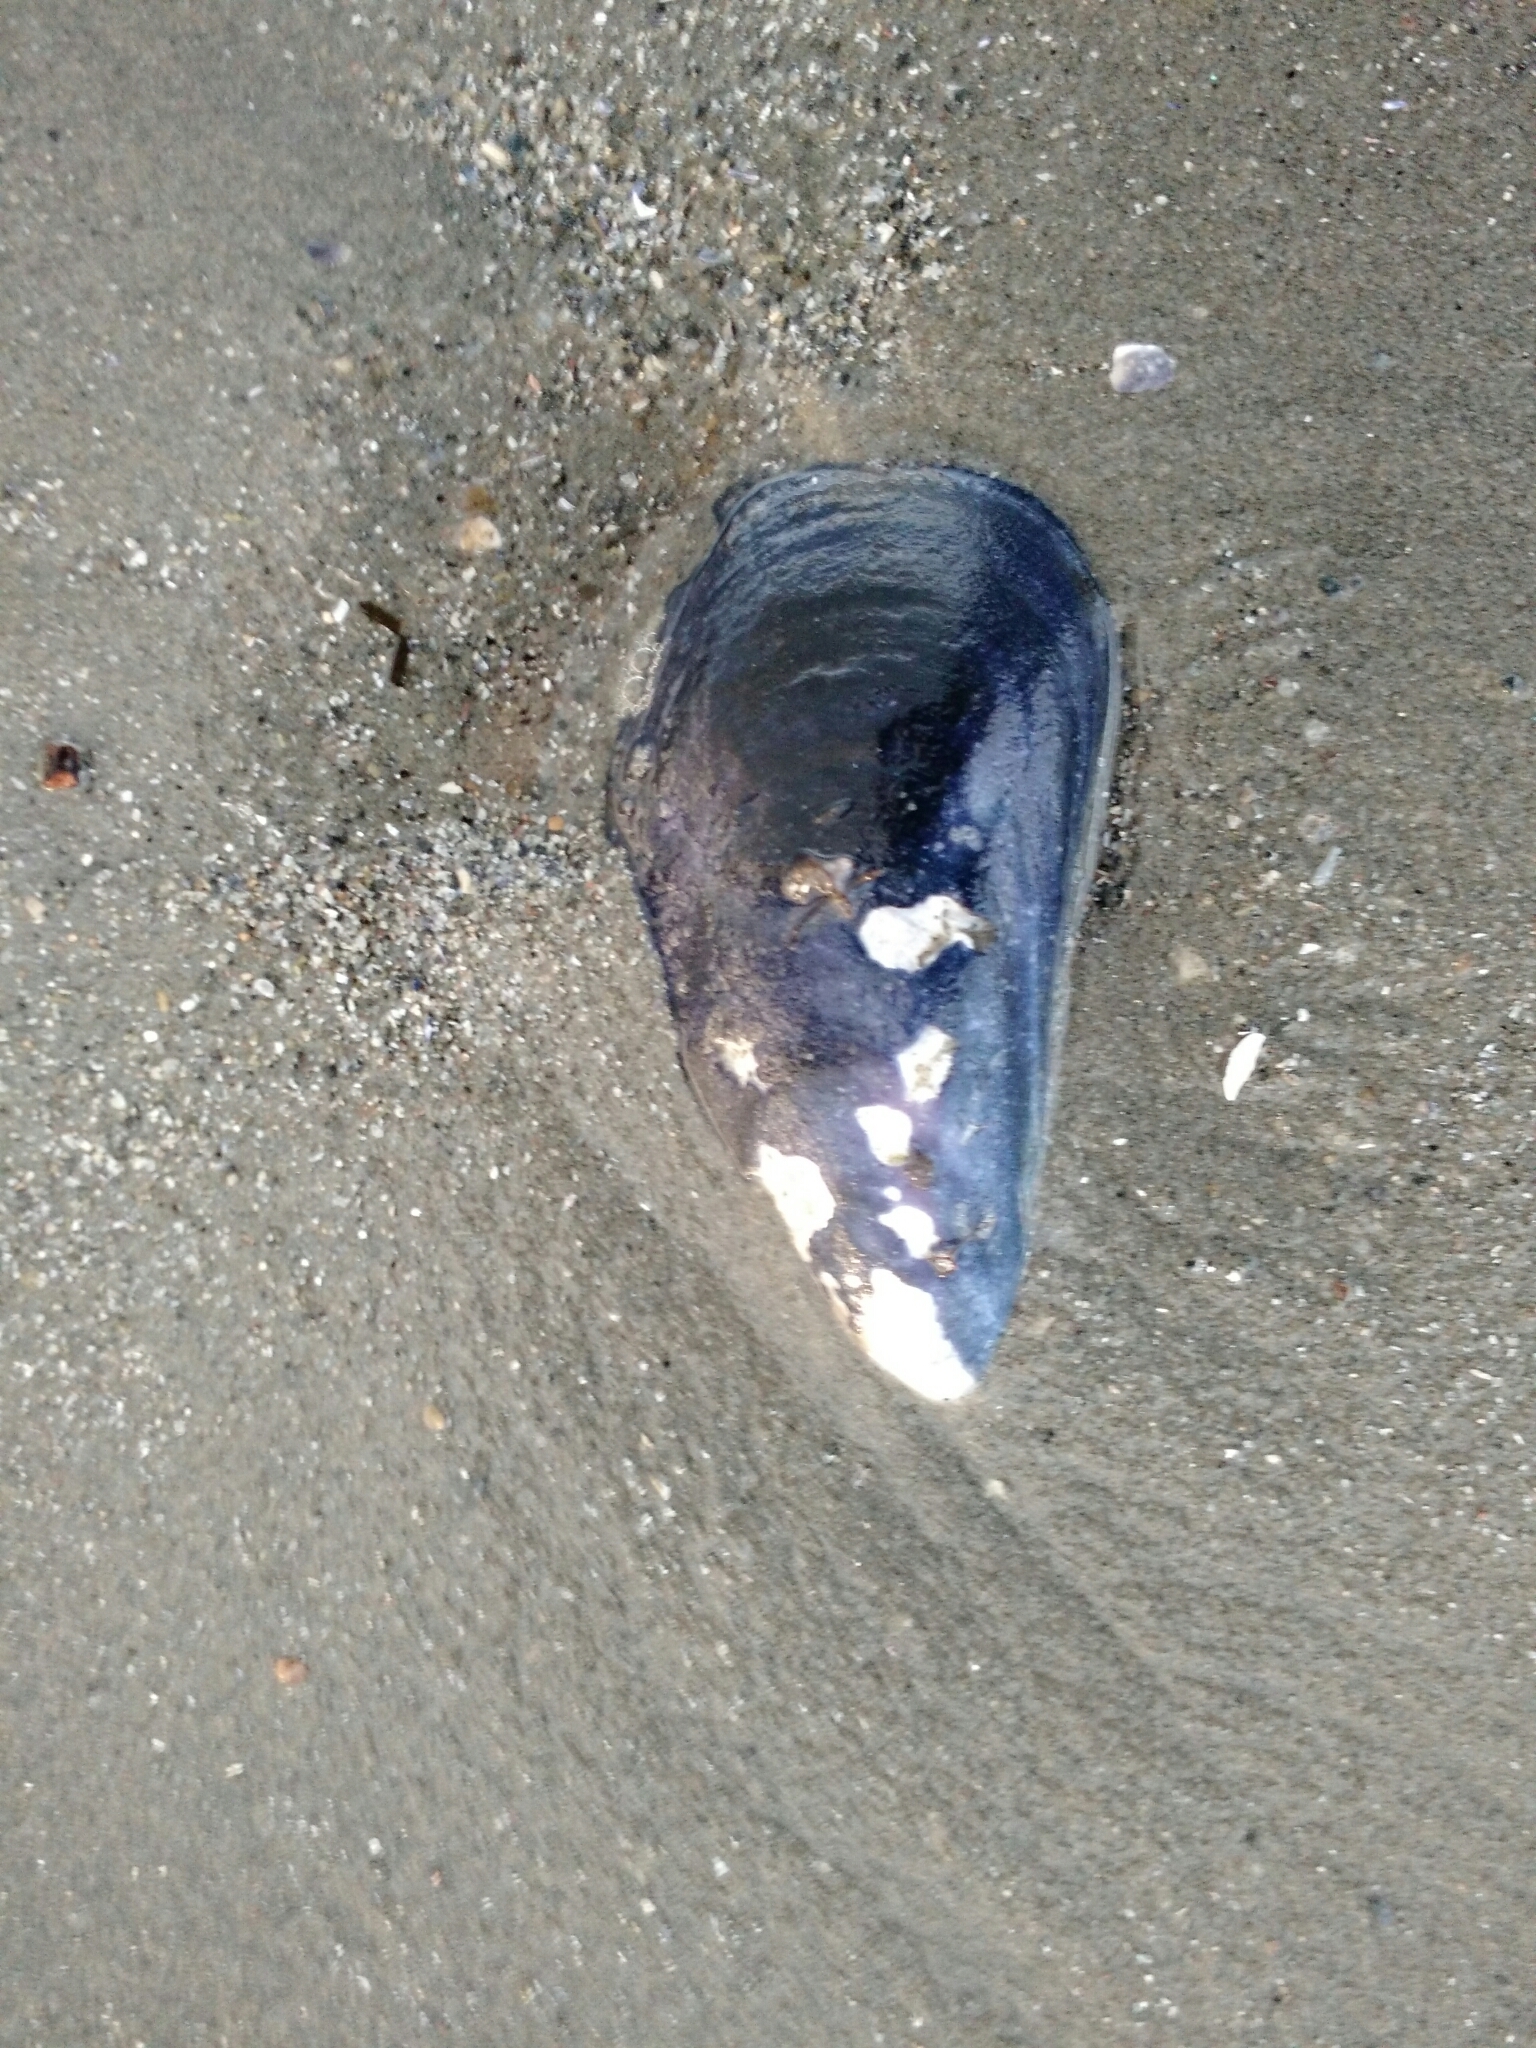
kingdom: Animalia
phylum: Mollusca
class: Bivalvia
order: Mytilida
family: Mytilidae
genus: Mytilus
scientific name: Mytilus edulis
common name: Blue mussel
